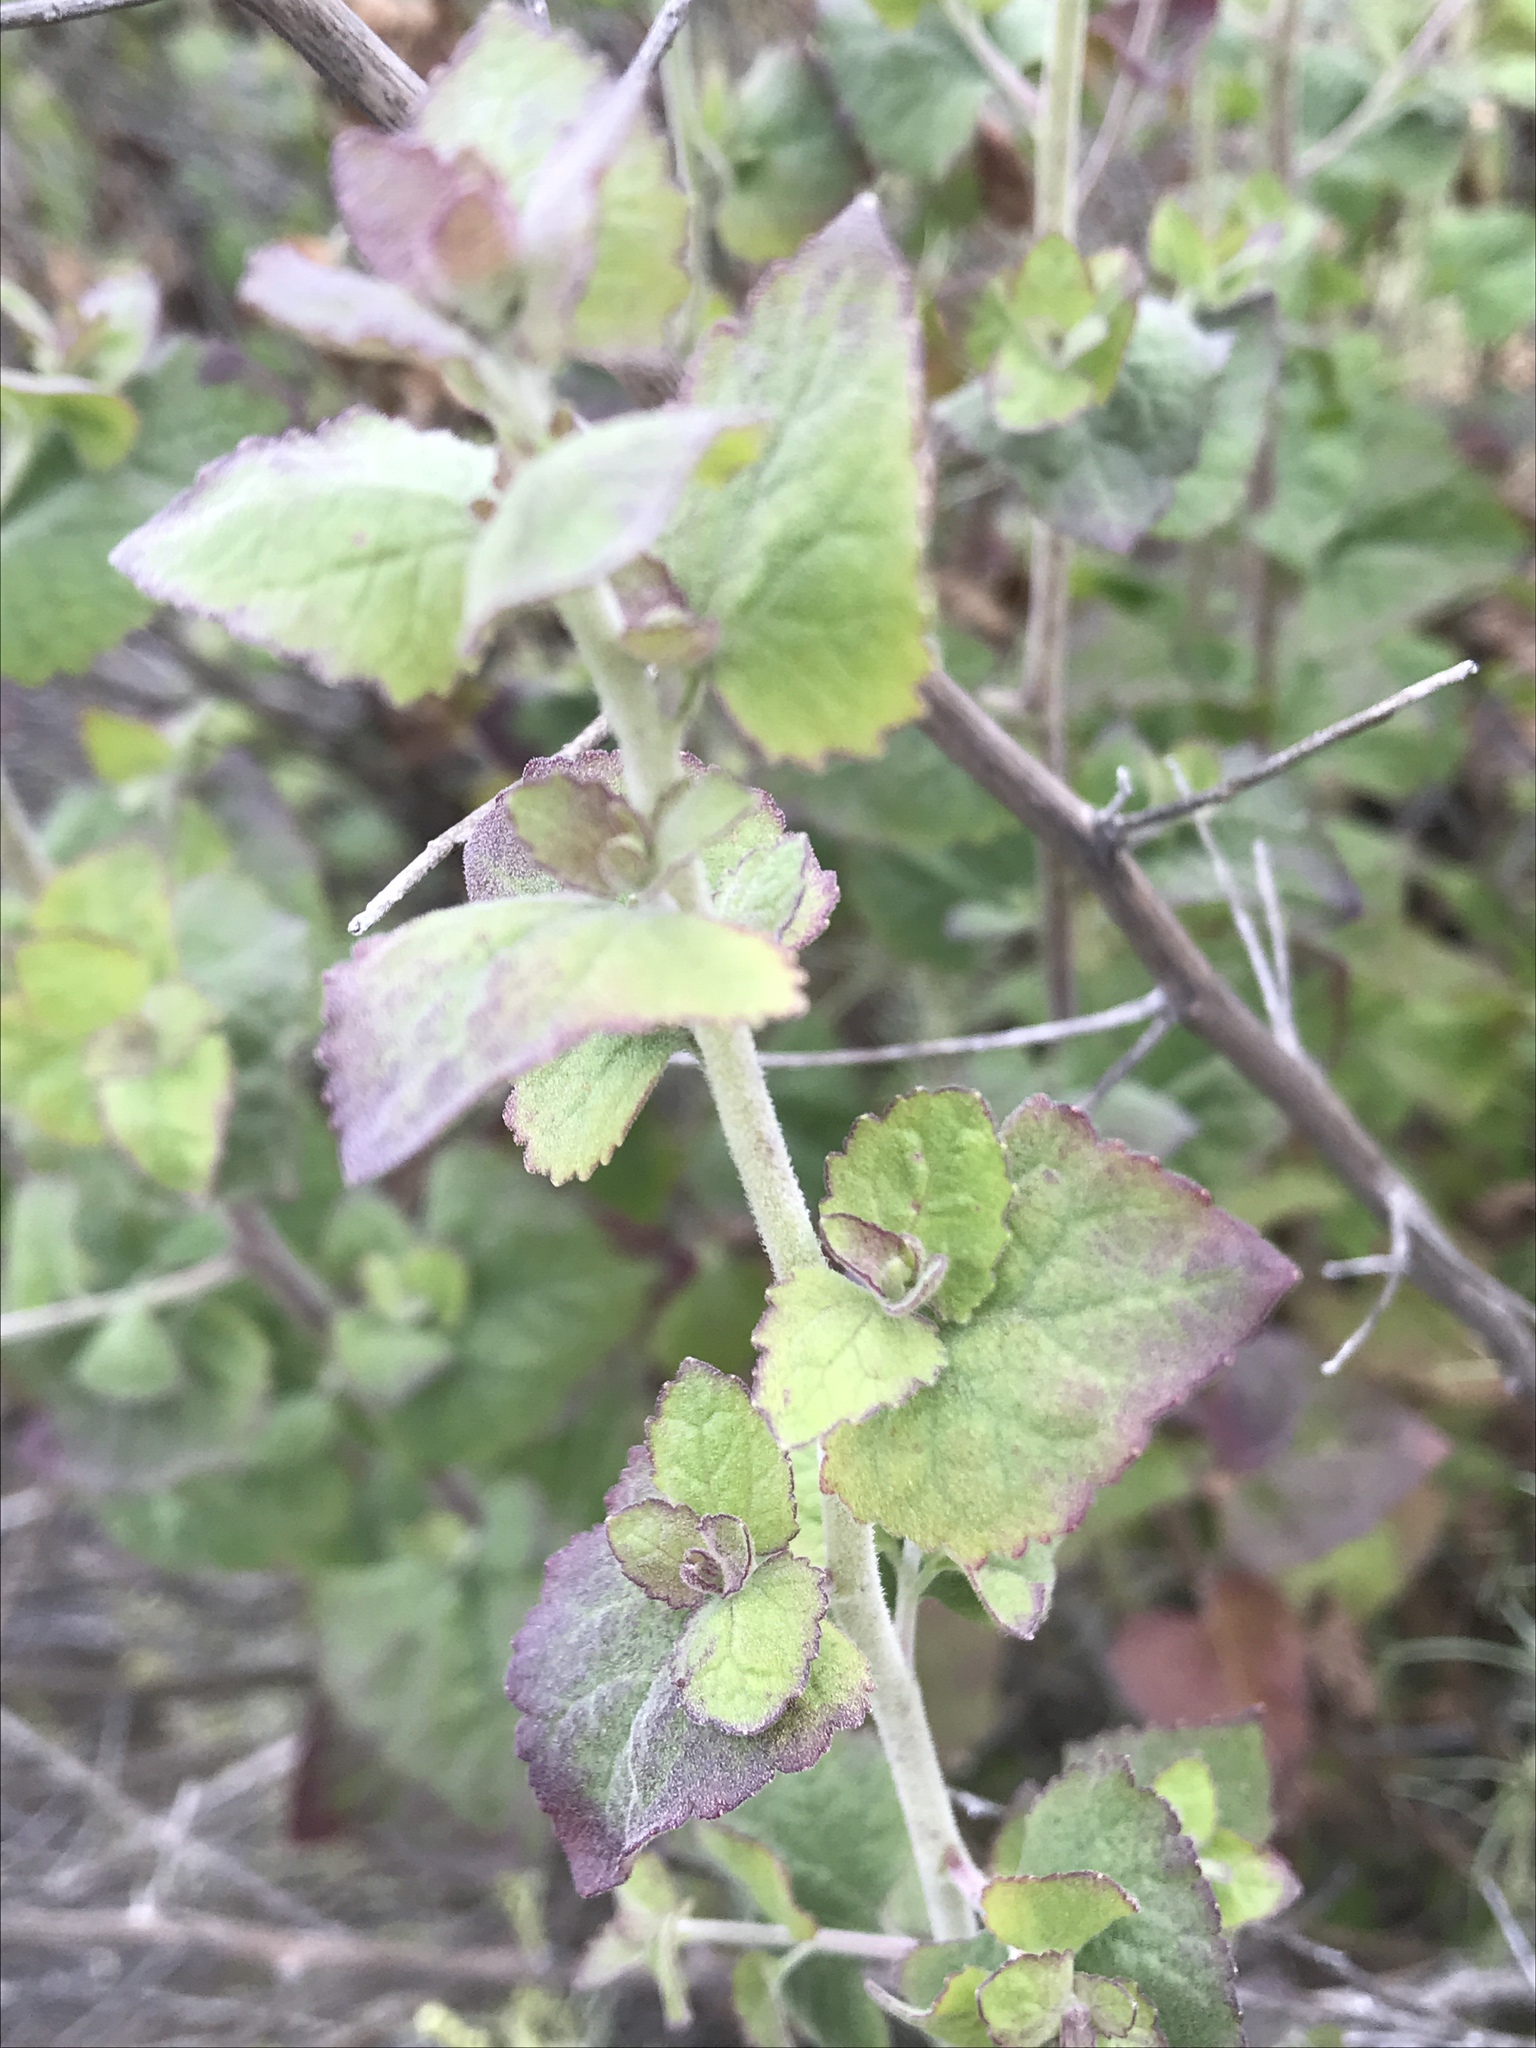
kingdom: Plantae
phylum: Tracheophyta
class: Magnoliopsida
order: Asterales
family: Asteraceae
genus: Brickellia
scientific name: Brickellia californica
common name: California brickellbush
